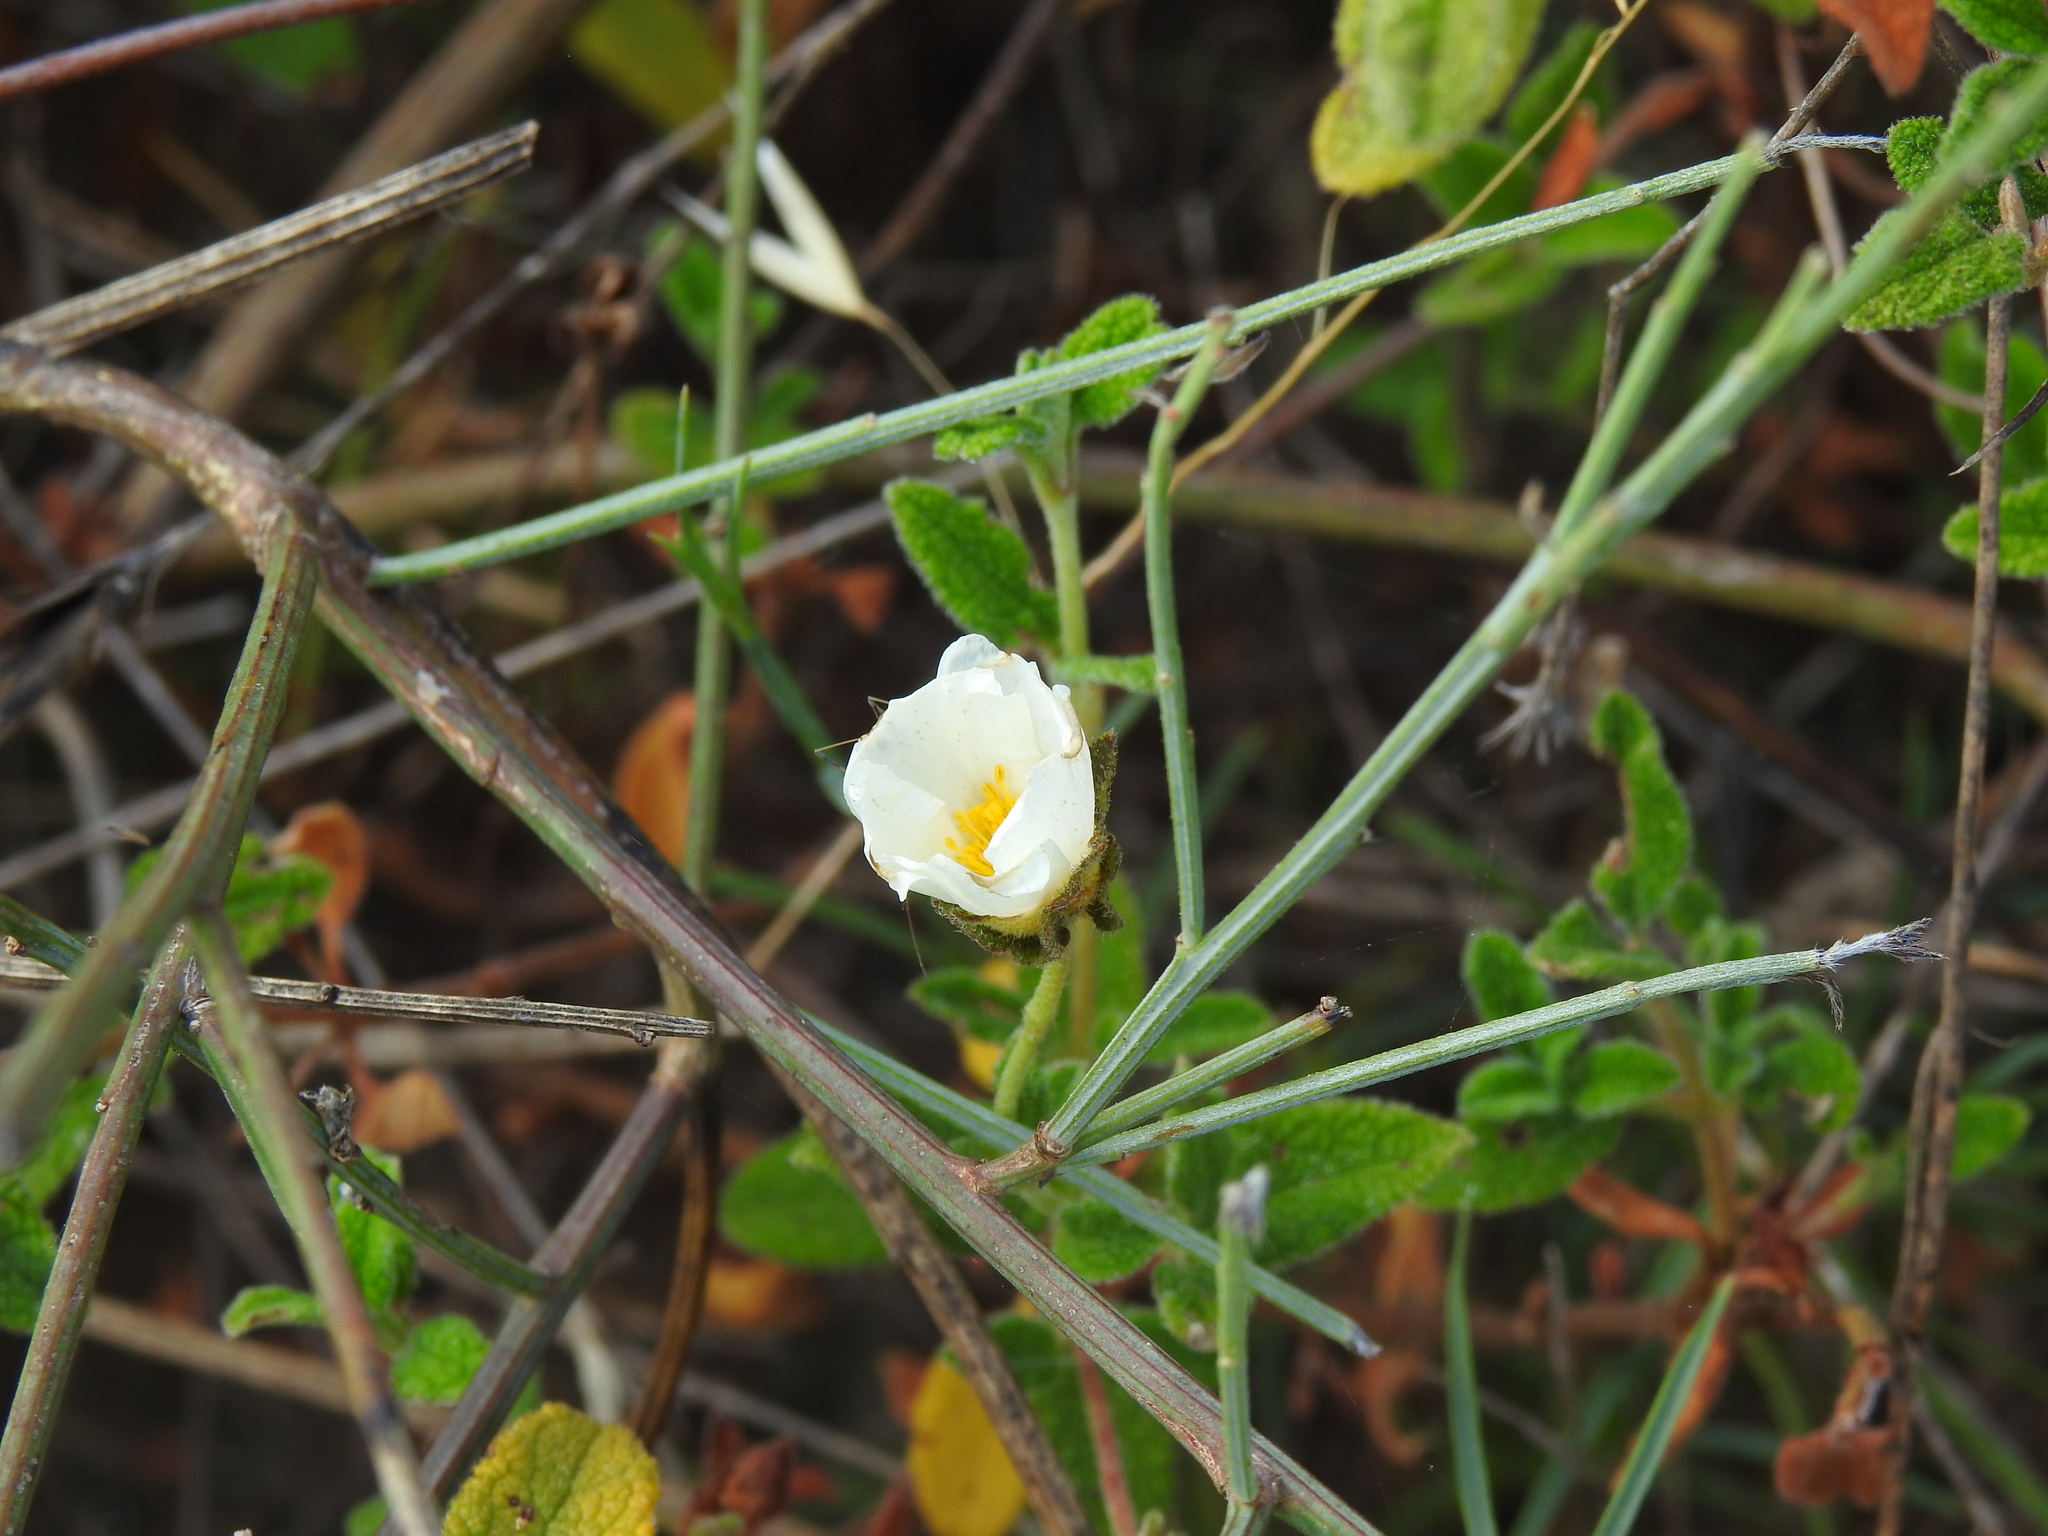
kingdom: Plantae
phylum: Tracheophyta
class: Magnoliopsida
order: Malvales
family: Cistaceae
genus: Cistus
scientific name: Cistus salviifolius
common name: Salvia cistus
